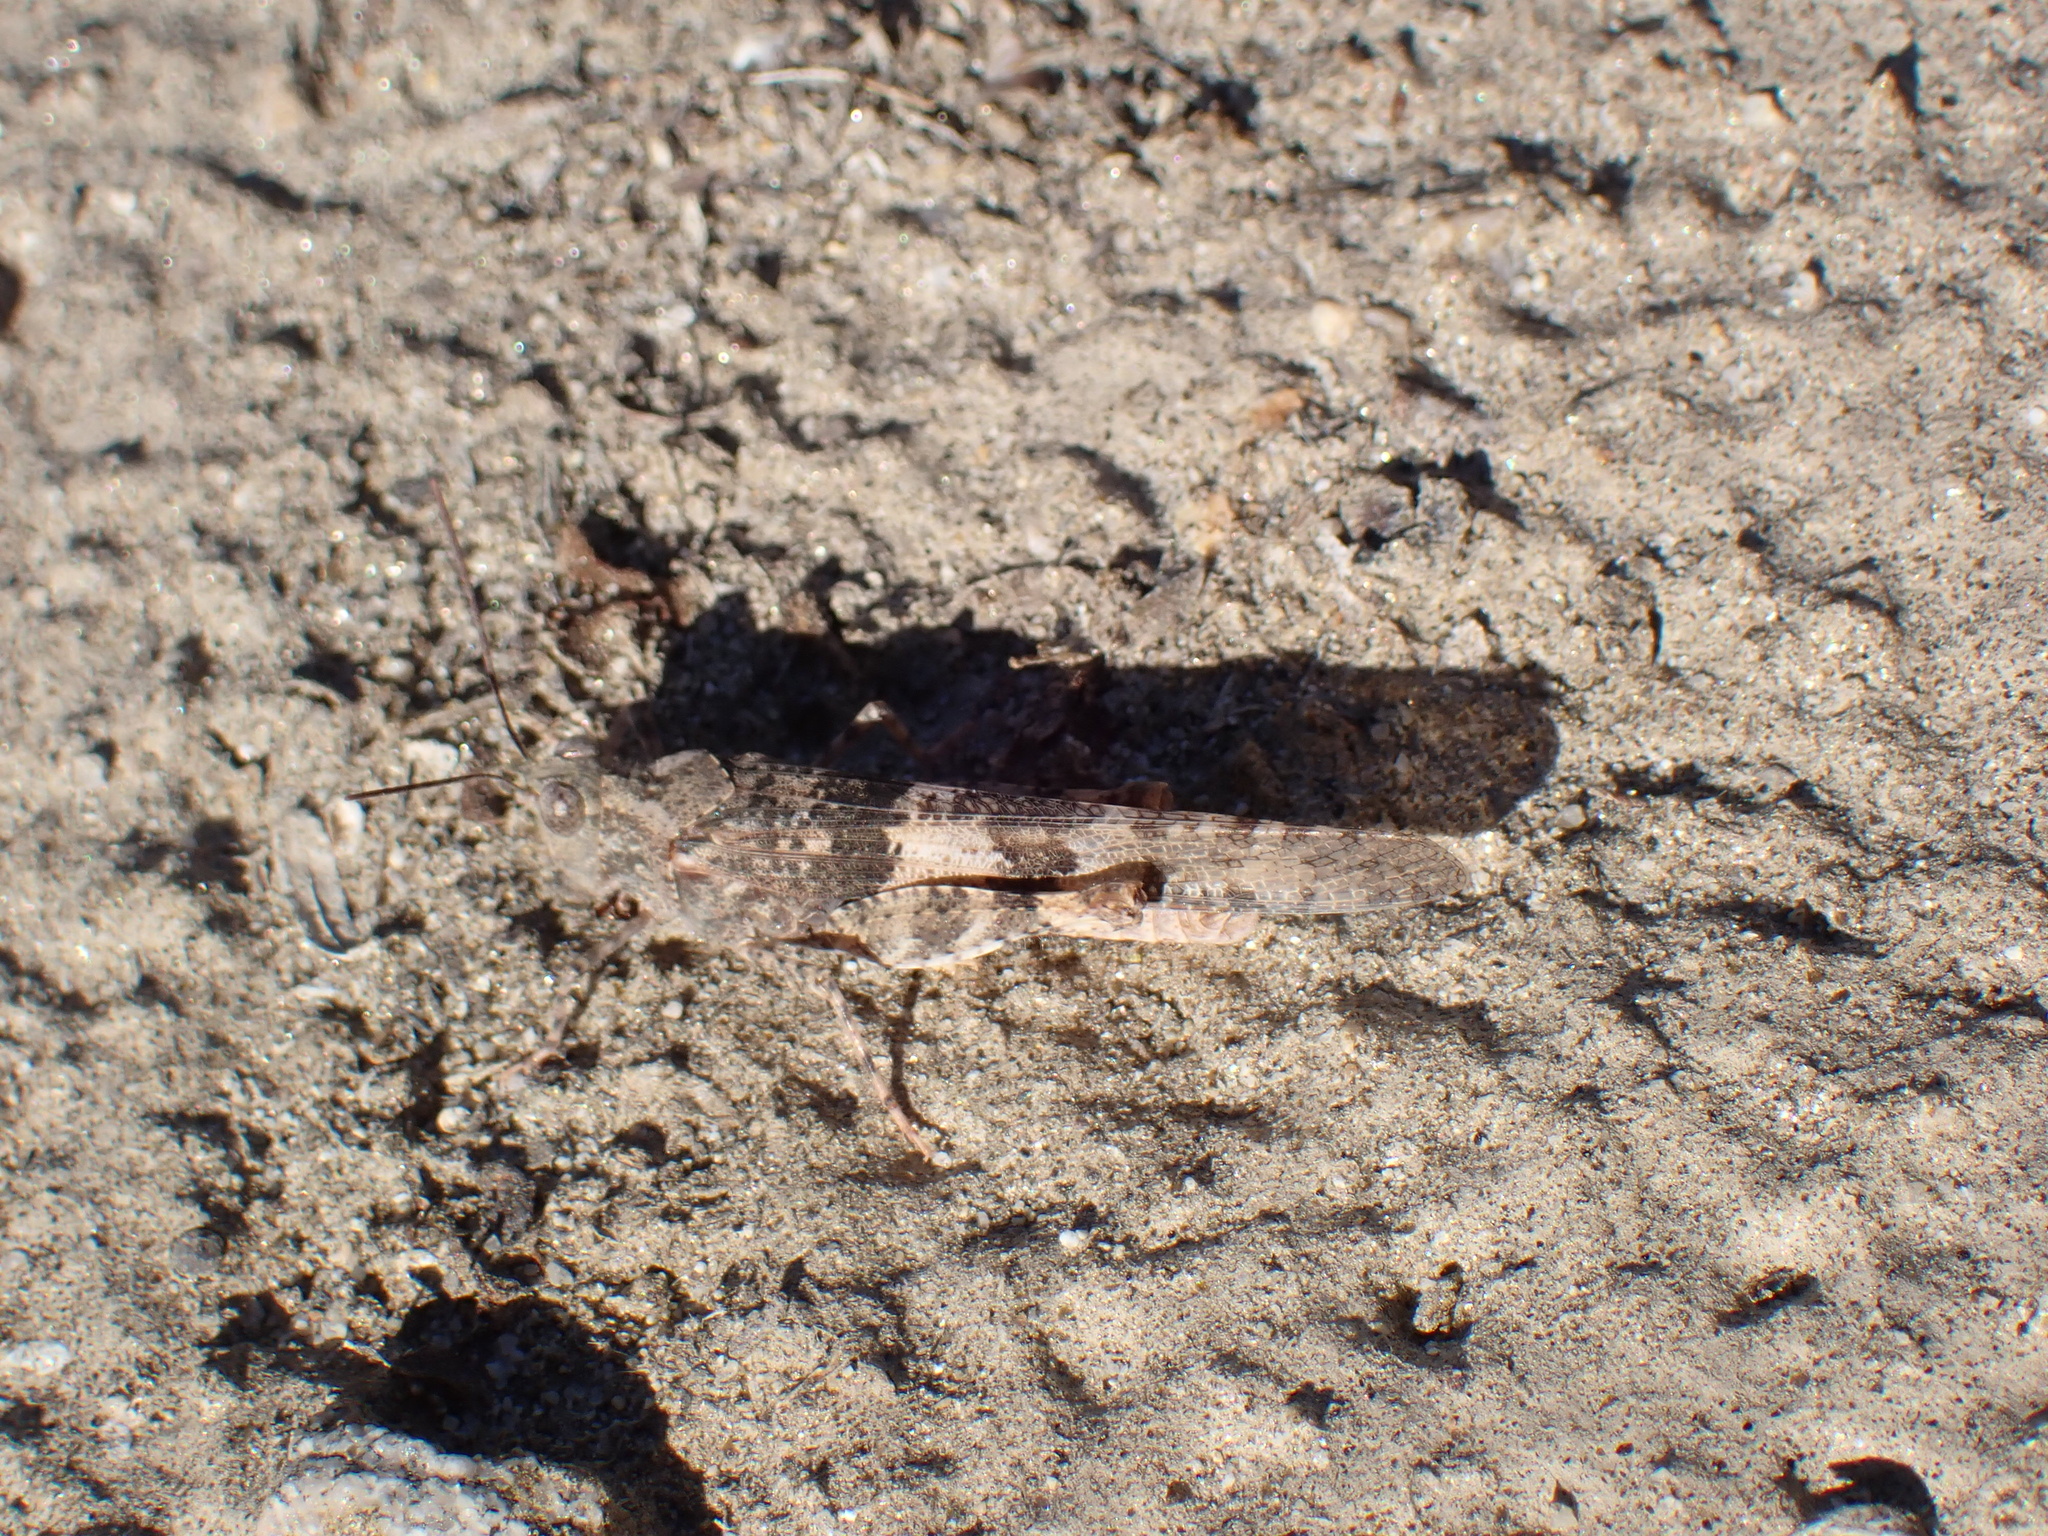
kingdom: Animalia
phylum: Arthropoda
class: Insecta
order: Orthoptera
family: Acrididae
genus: Trimerotropis
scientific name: Trimerotropis pallidipennis
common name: Pallid-winged grasshopper
